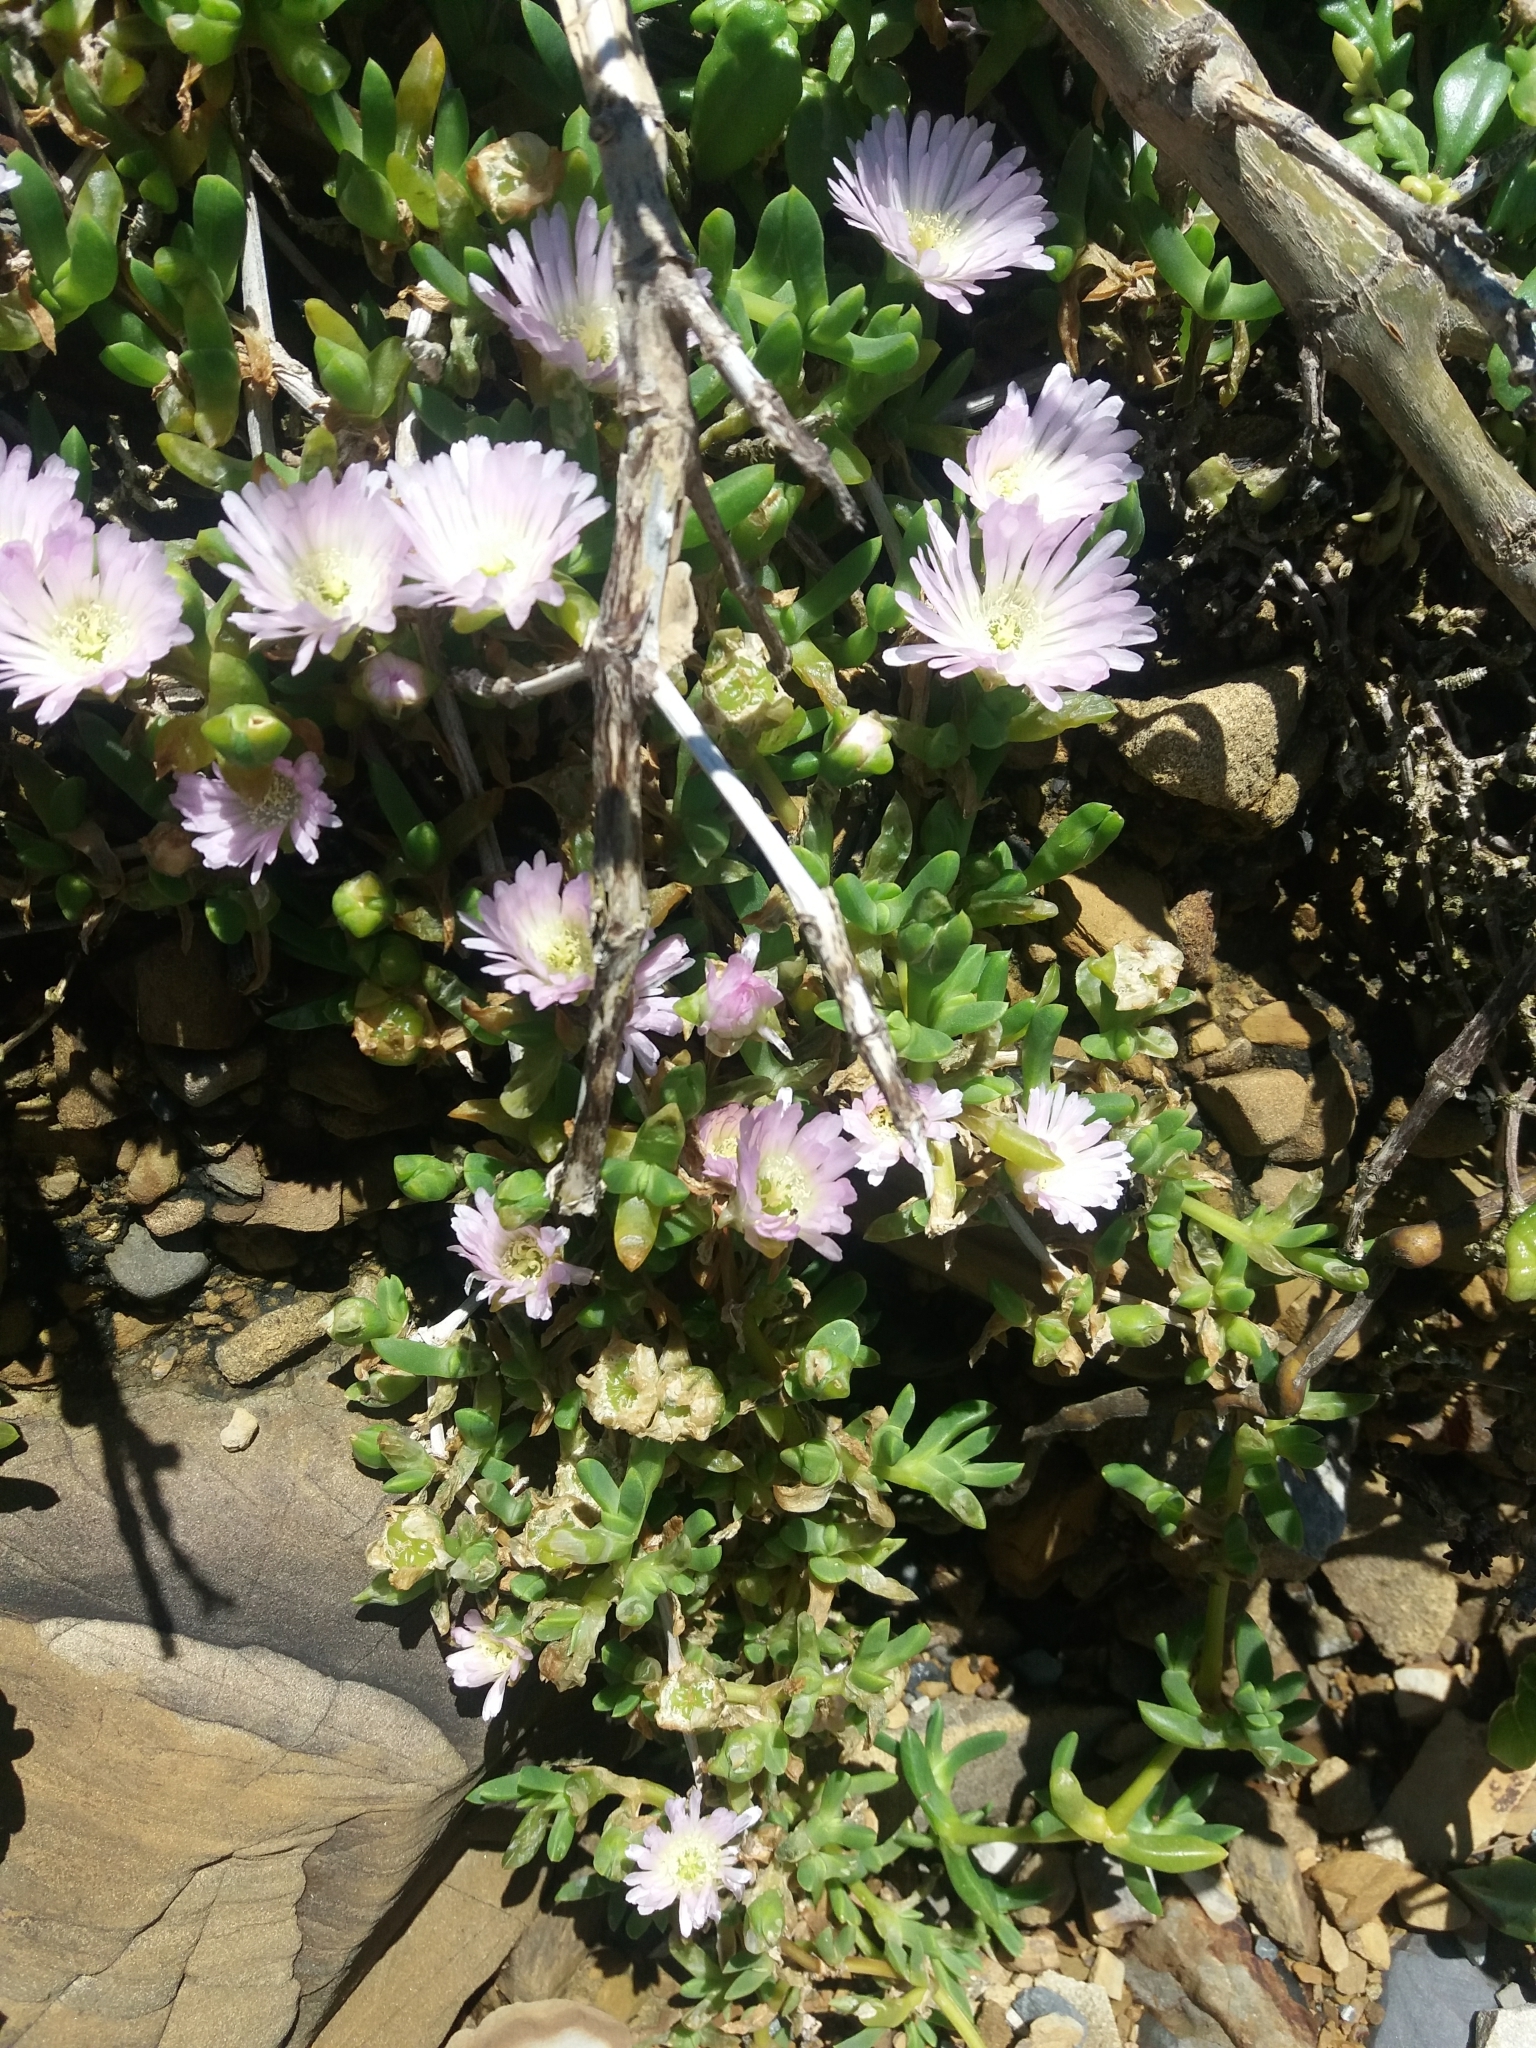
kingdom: Plantae
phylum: Tracheophyta
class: Magnoliopsida
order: Caryophyllales
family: Aizoaceae
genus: Disphyma
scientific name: Disphyma australe
